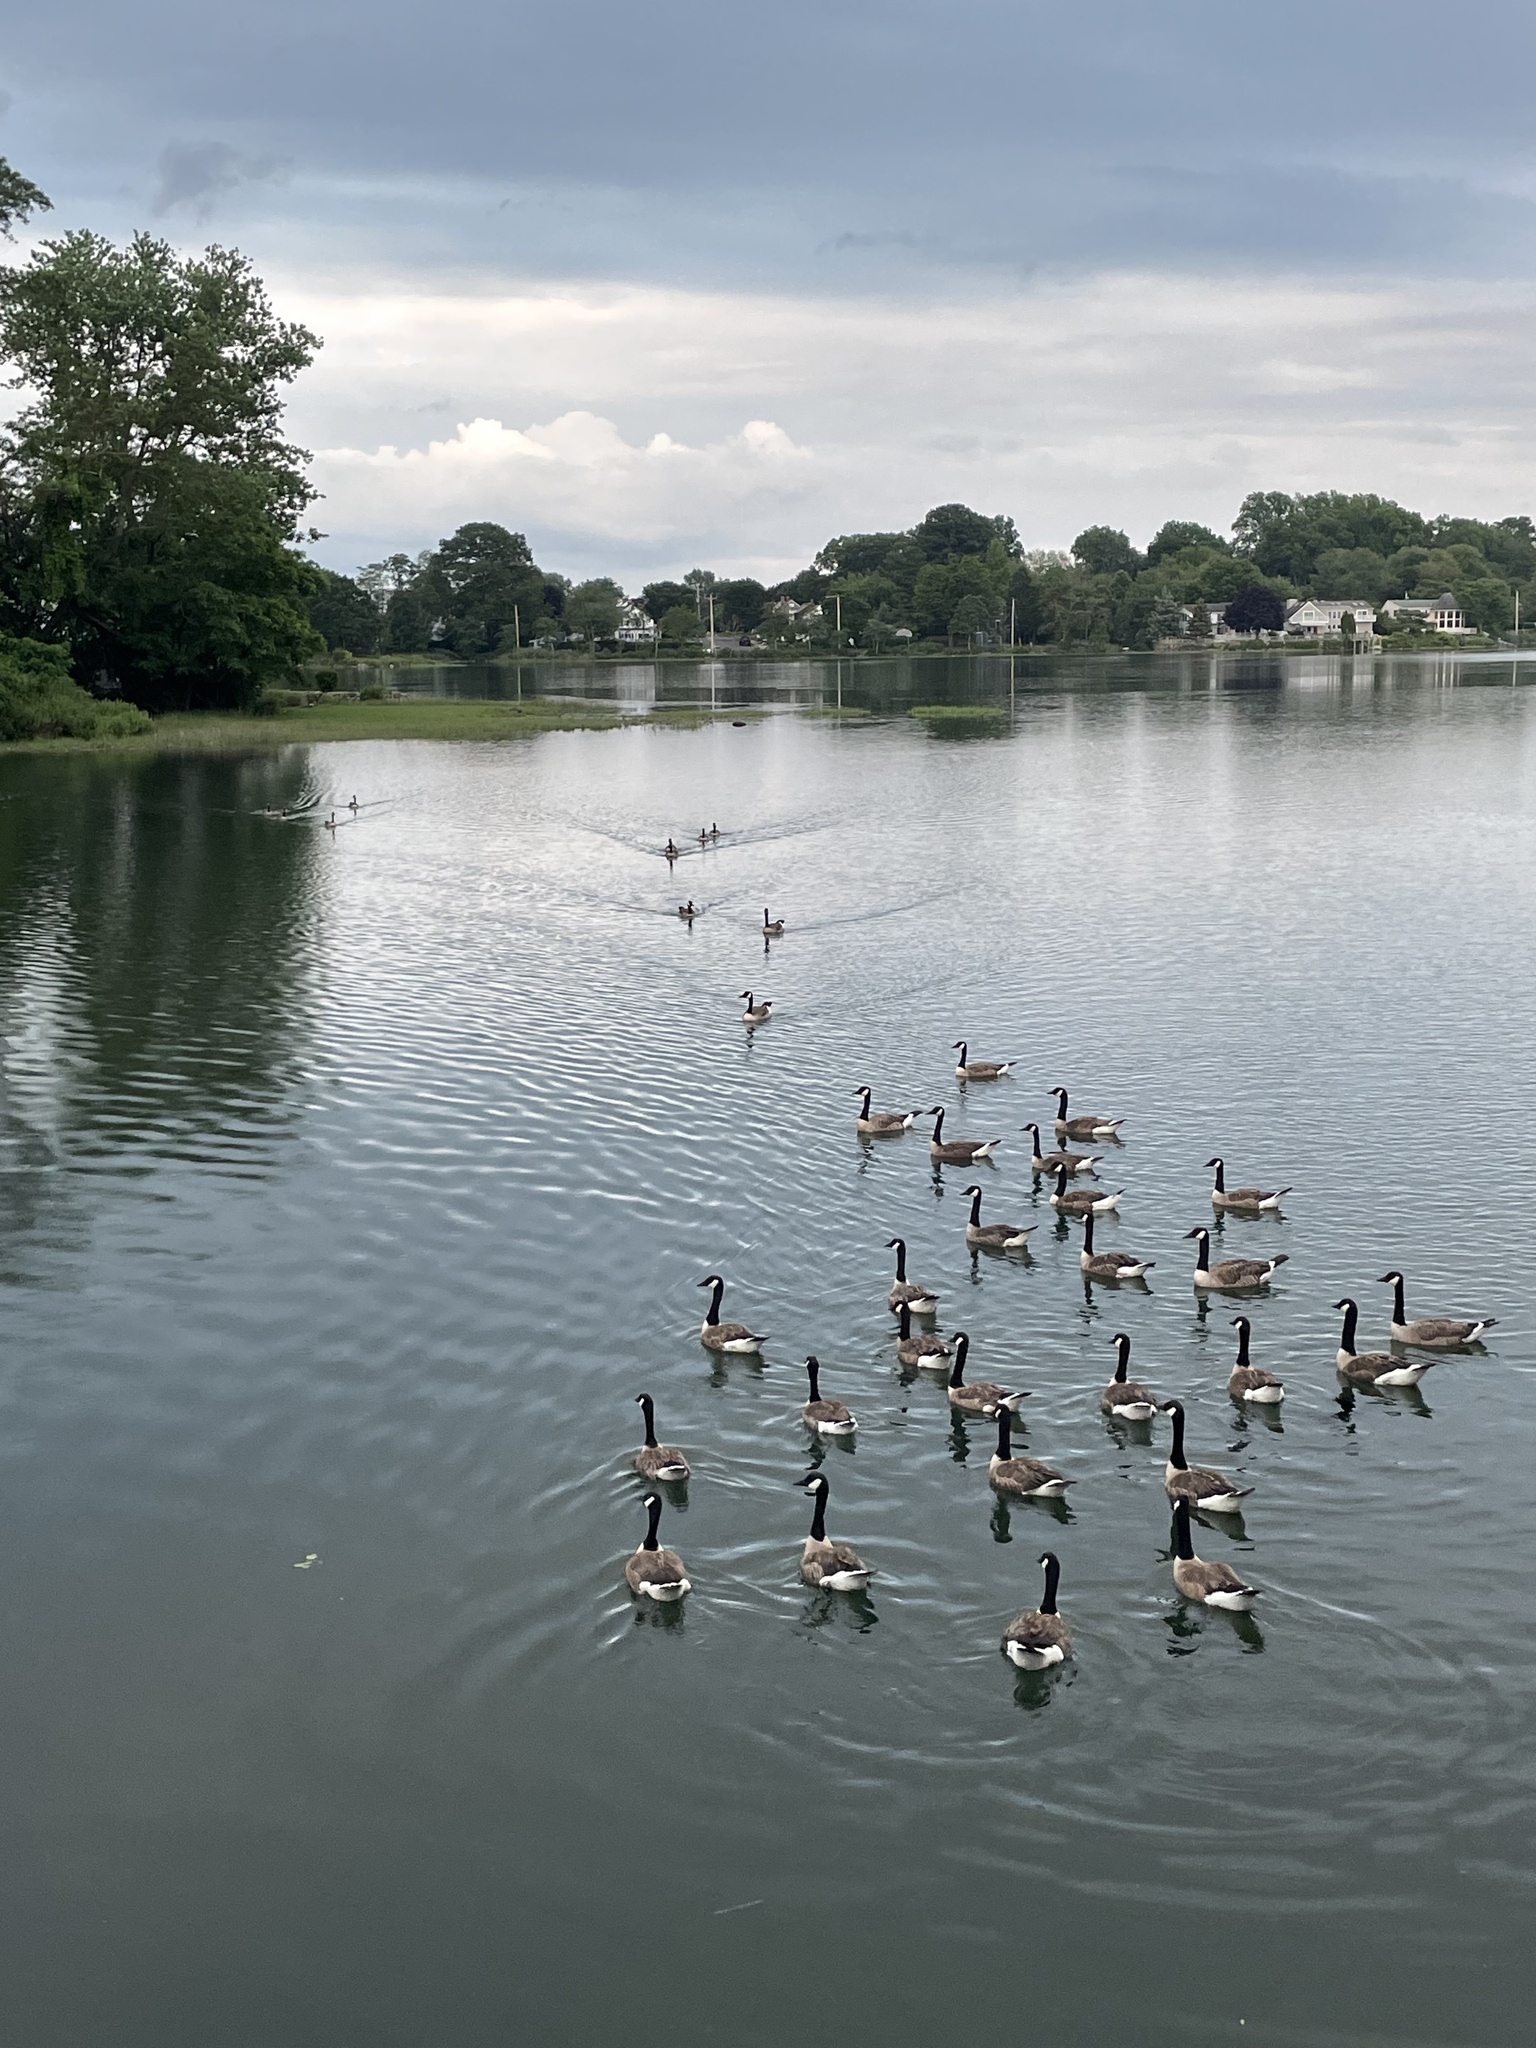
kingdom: Animalia
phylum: Chordata
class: Aves
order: Anseriformes
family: Anatidae
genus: Branta
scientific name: Branta canadensis
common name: Canada goose
